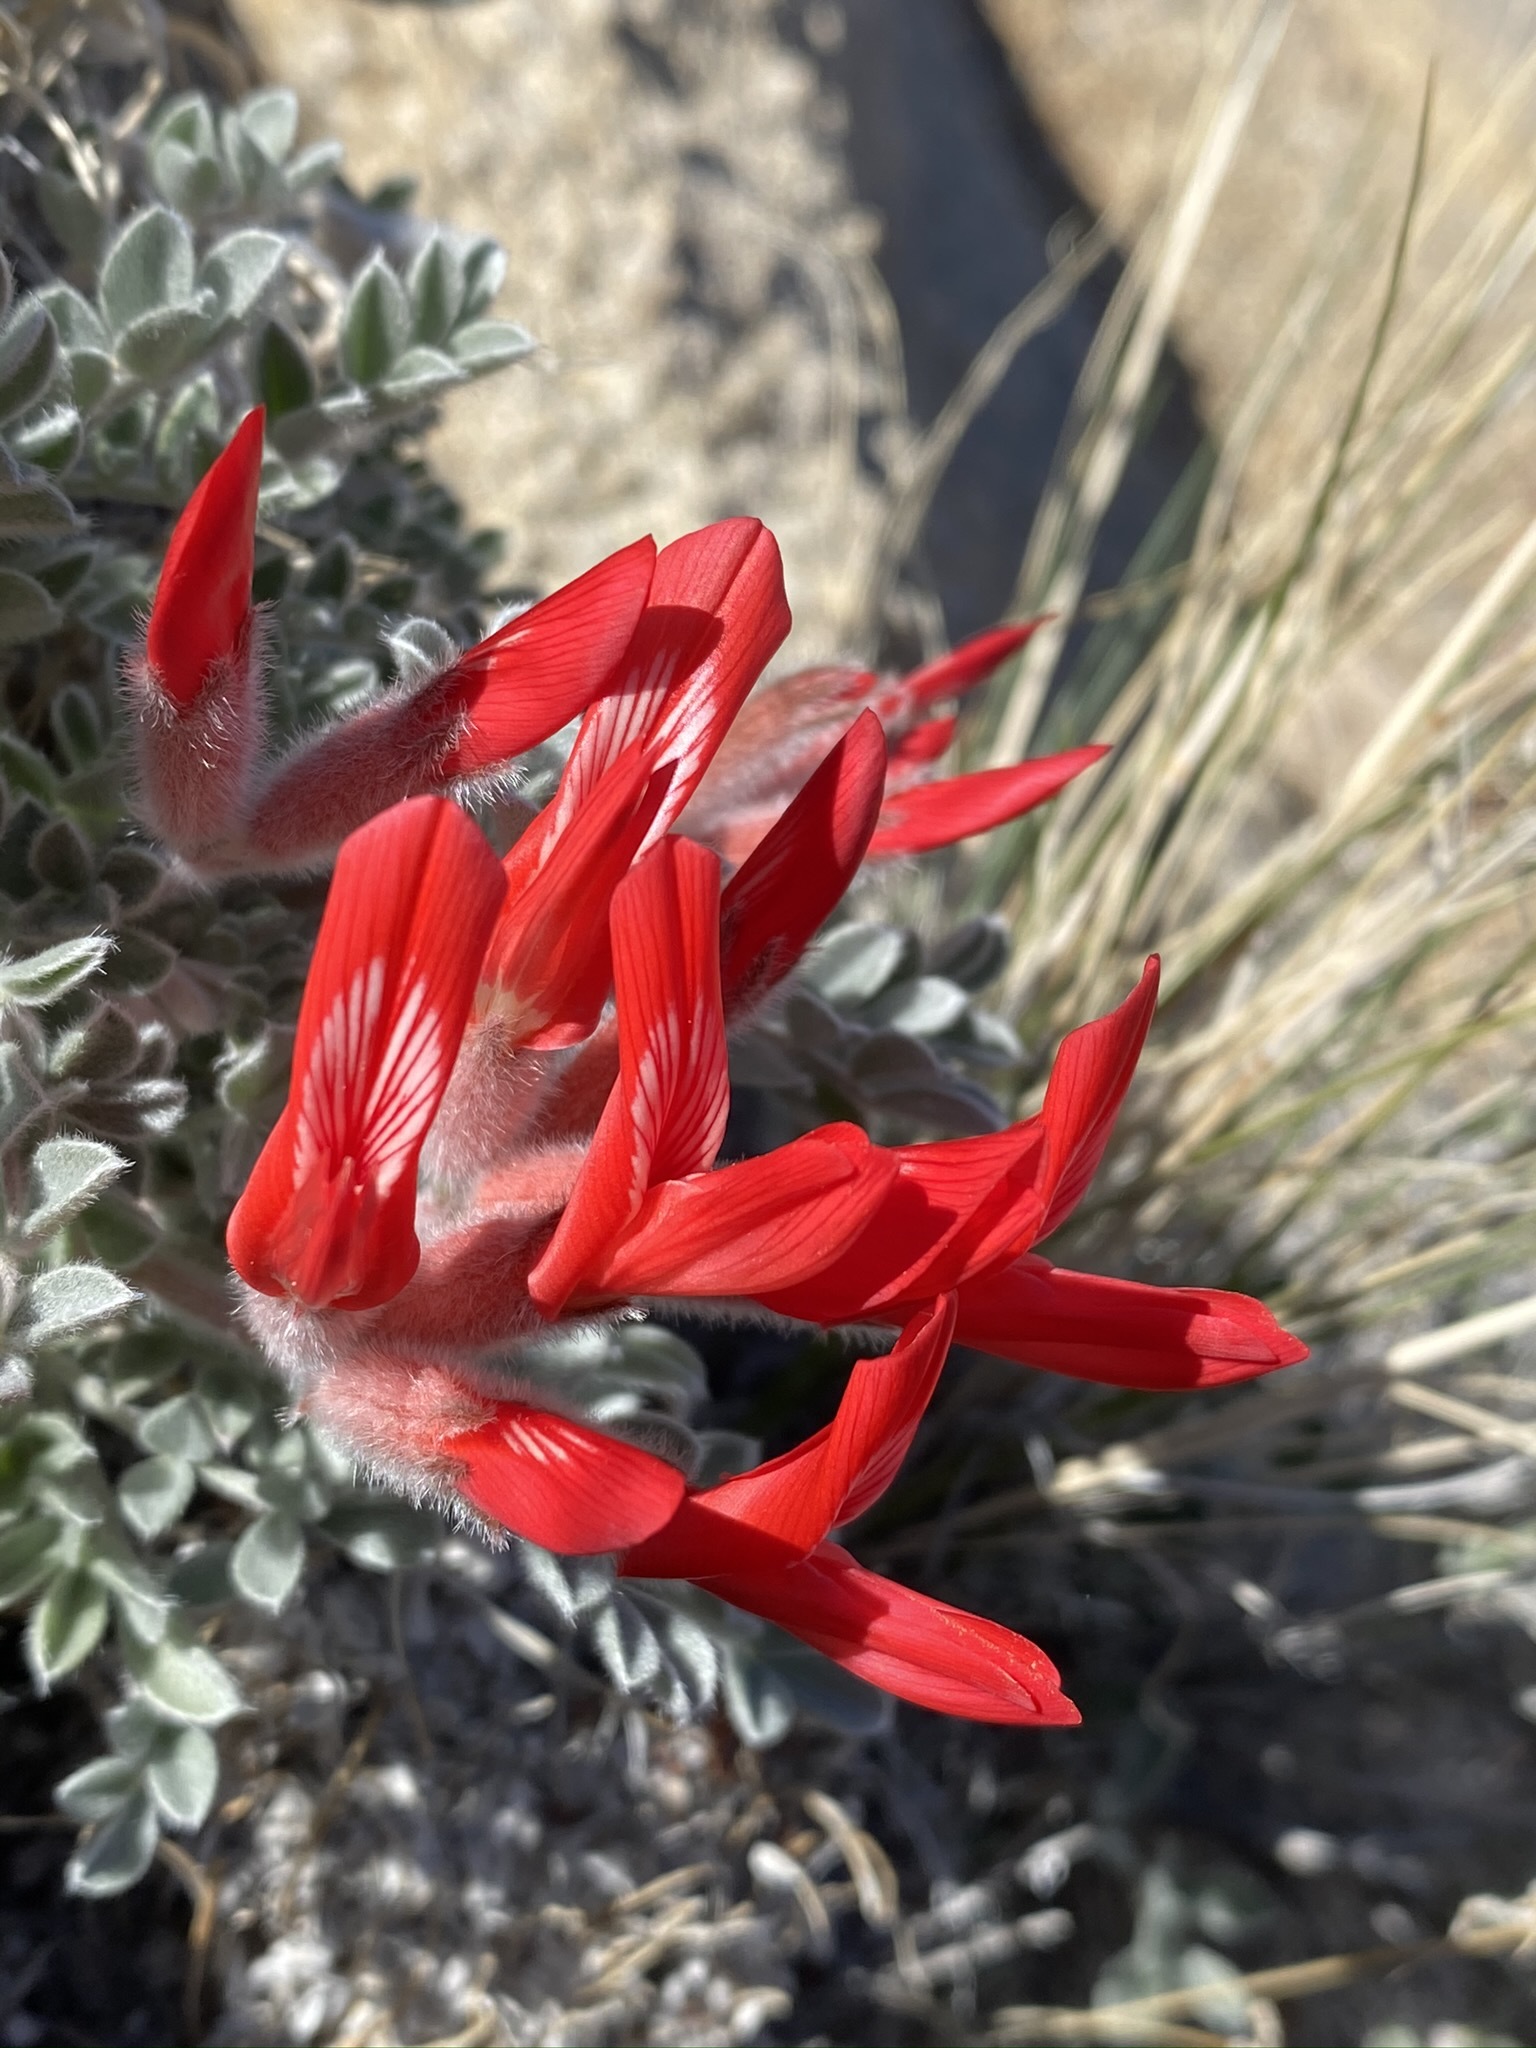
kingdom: Plantae
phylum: Tracheophyta
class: Magnoliopsida
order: Fabales
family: Fabaceae
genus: Astragalus
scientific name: Astragalus coccineus
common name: Scarlet milk-vetch
